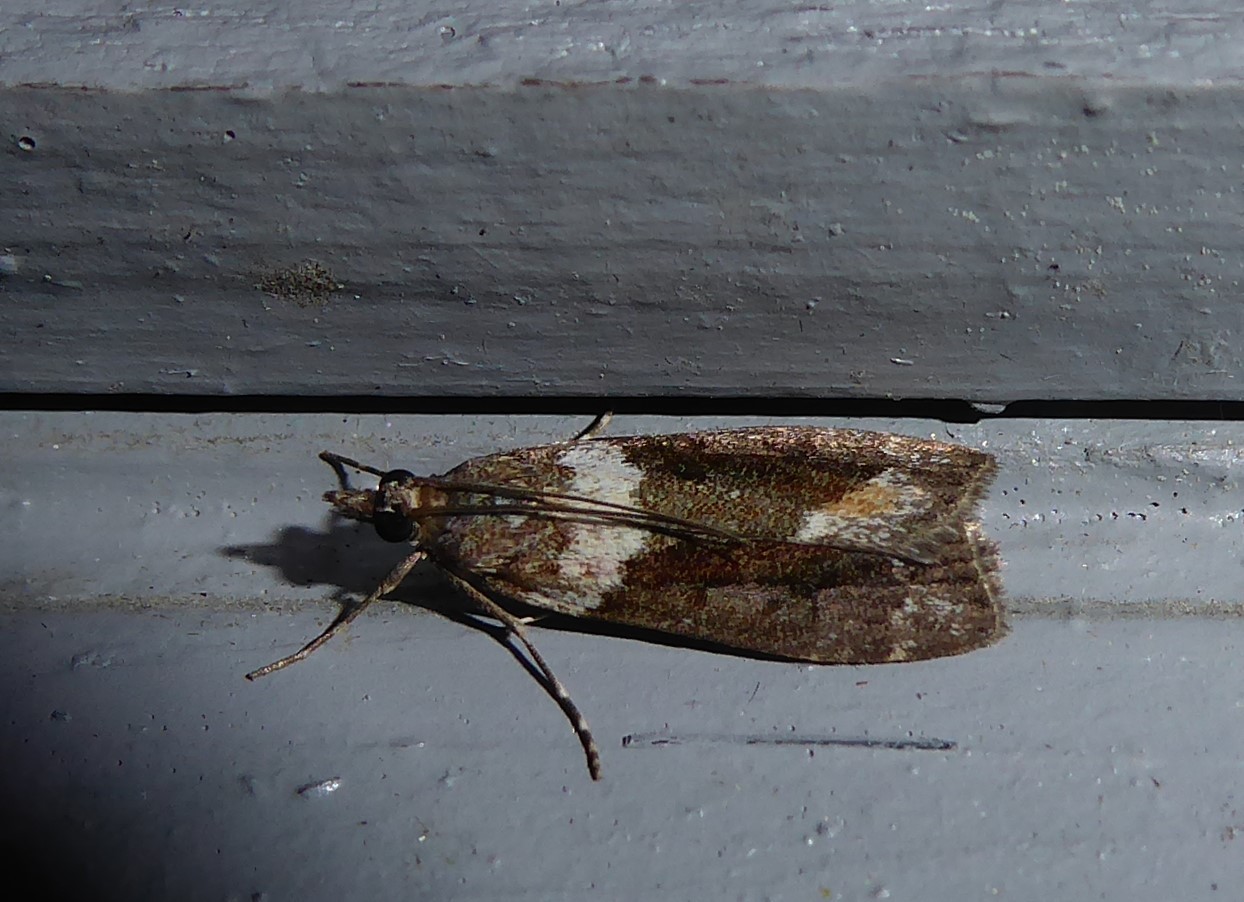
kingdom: Animalia
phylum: Arthropoda
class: Insecta
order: Lepidoptera
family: Crambidae
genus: Eudonia
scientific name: Eudonia submarginalis
